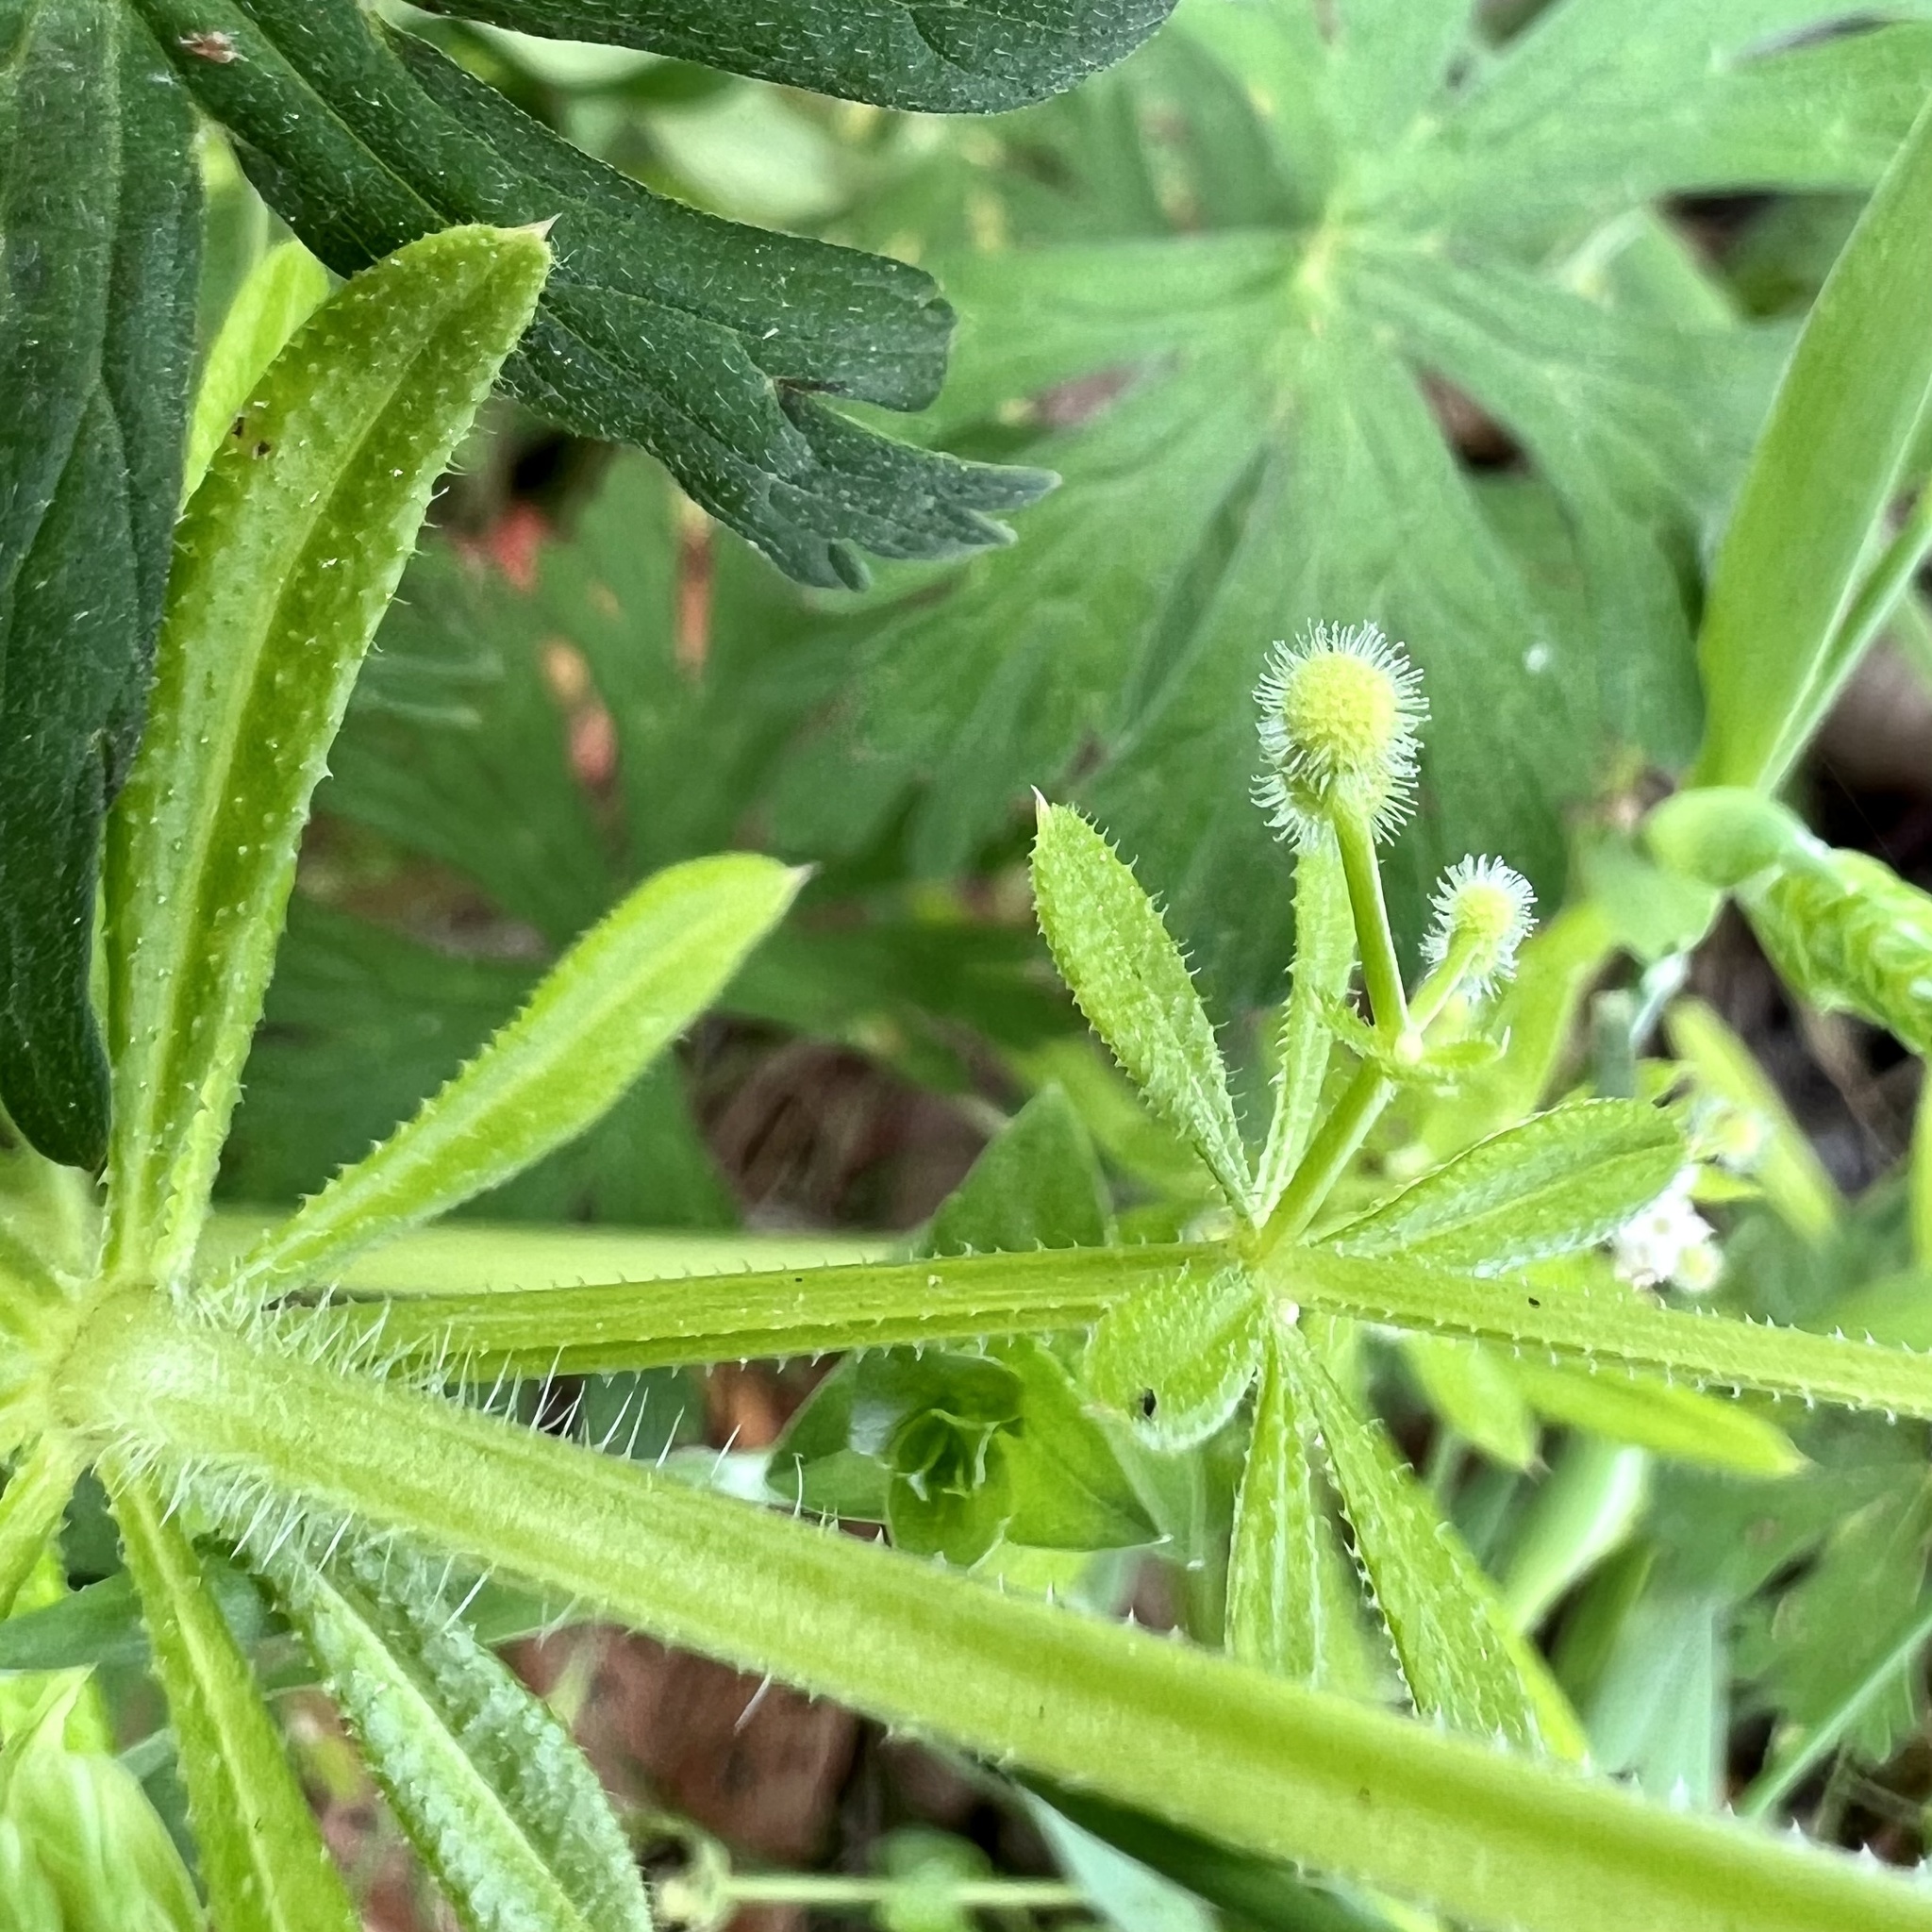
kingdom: Plantae
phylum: Tracheophyta
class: Magnoliopsida
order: Gentianales
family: Rubiaceae
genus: Galium
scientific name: Galium aparine
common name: Cleavers
